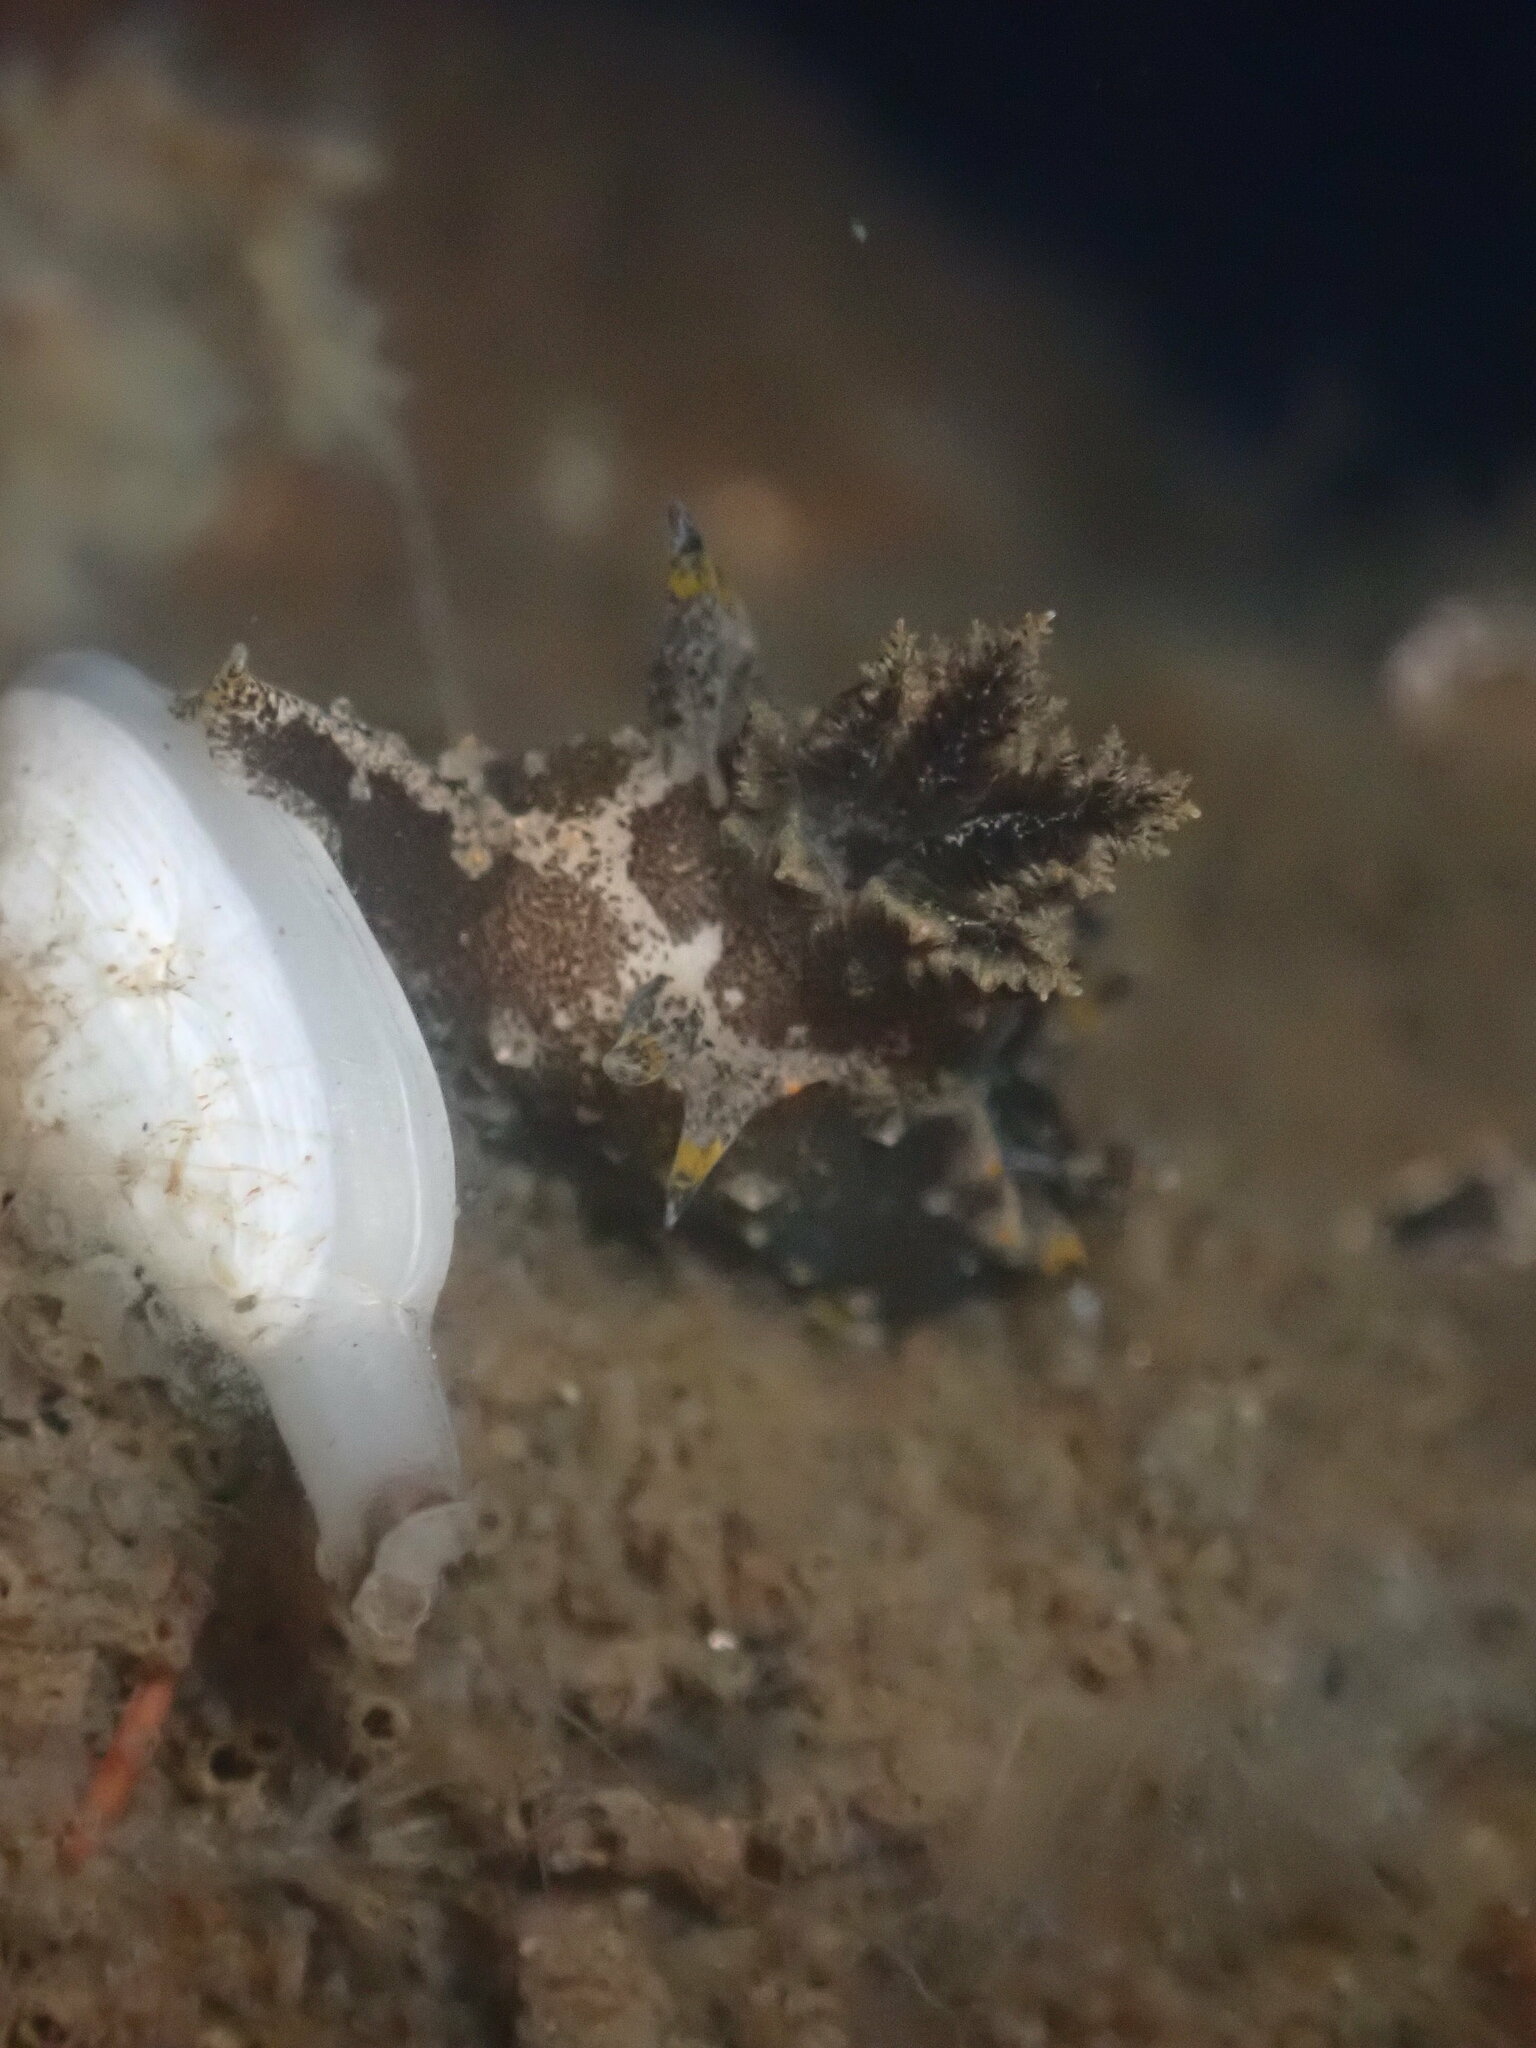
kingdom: Animalia
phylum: Mollusca
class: Gastropoda
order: Nudibranchia
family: Polyceridae
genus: Polycera
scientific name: Polycera hedgpethi
